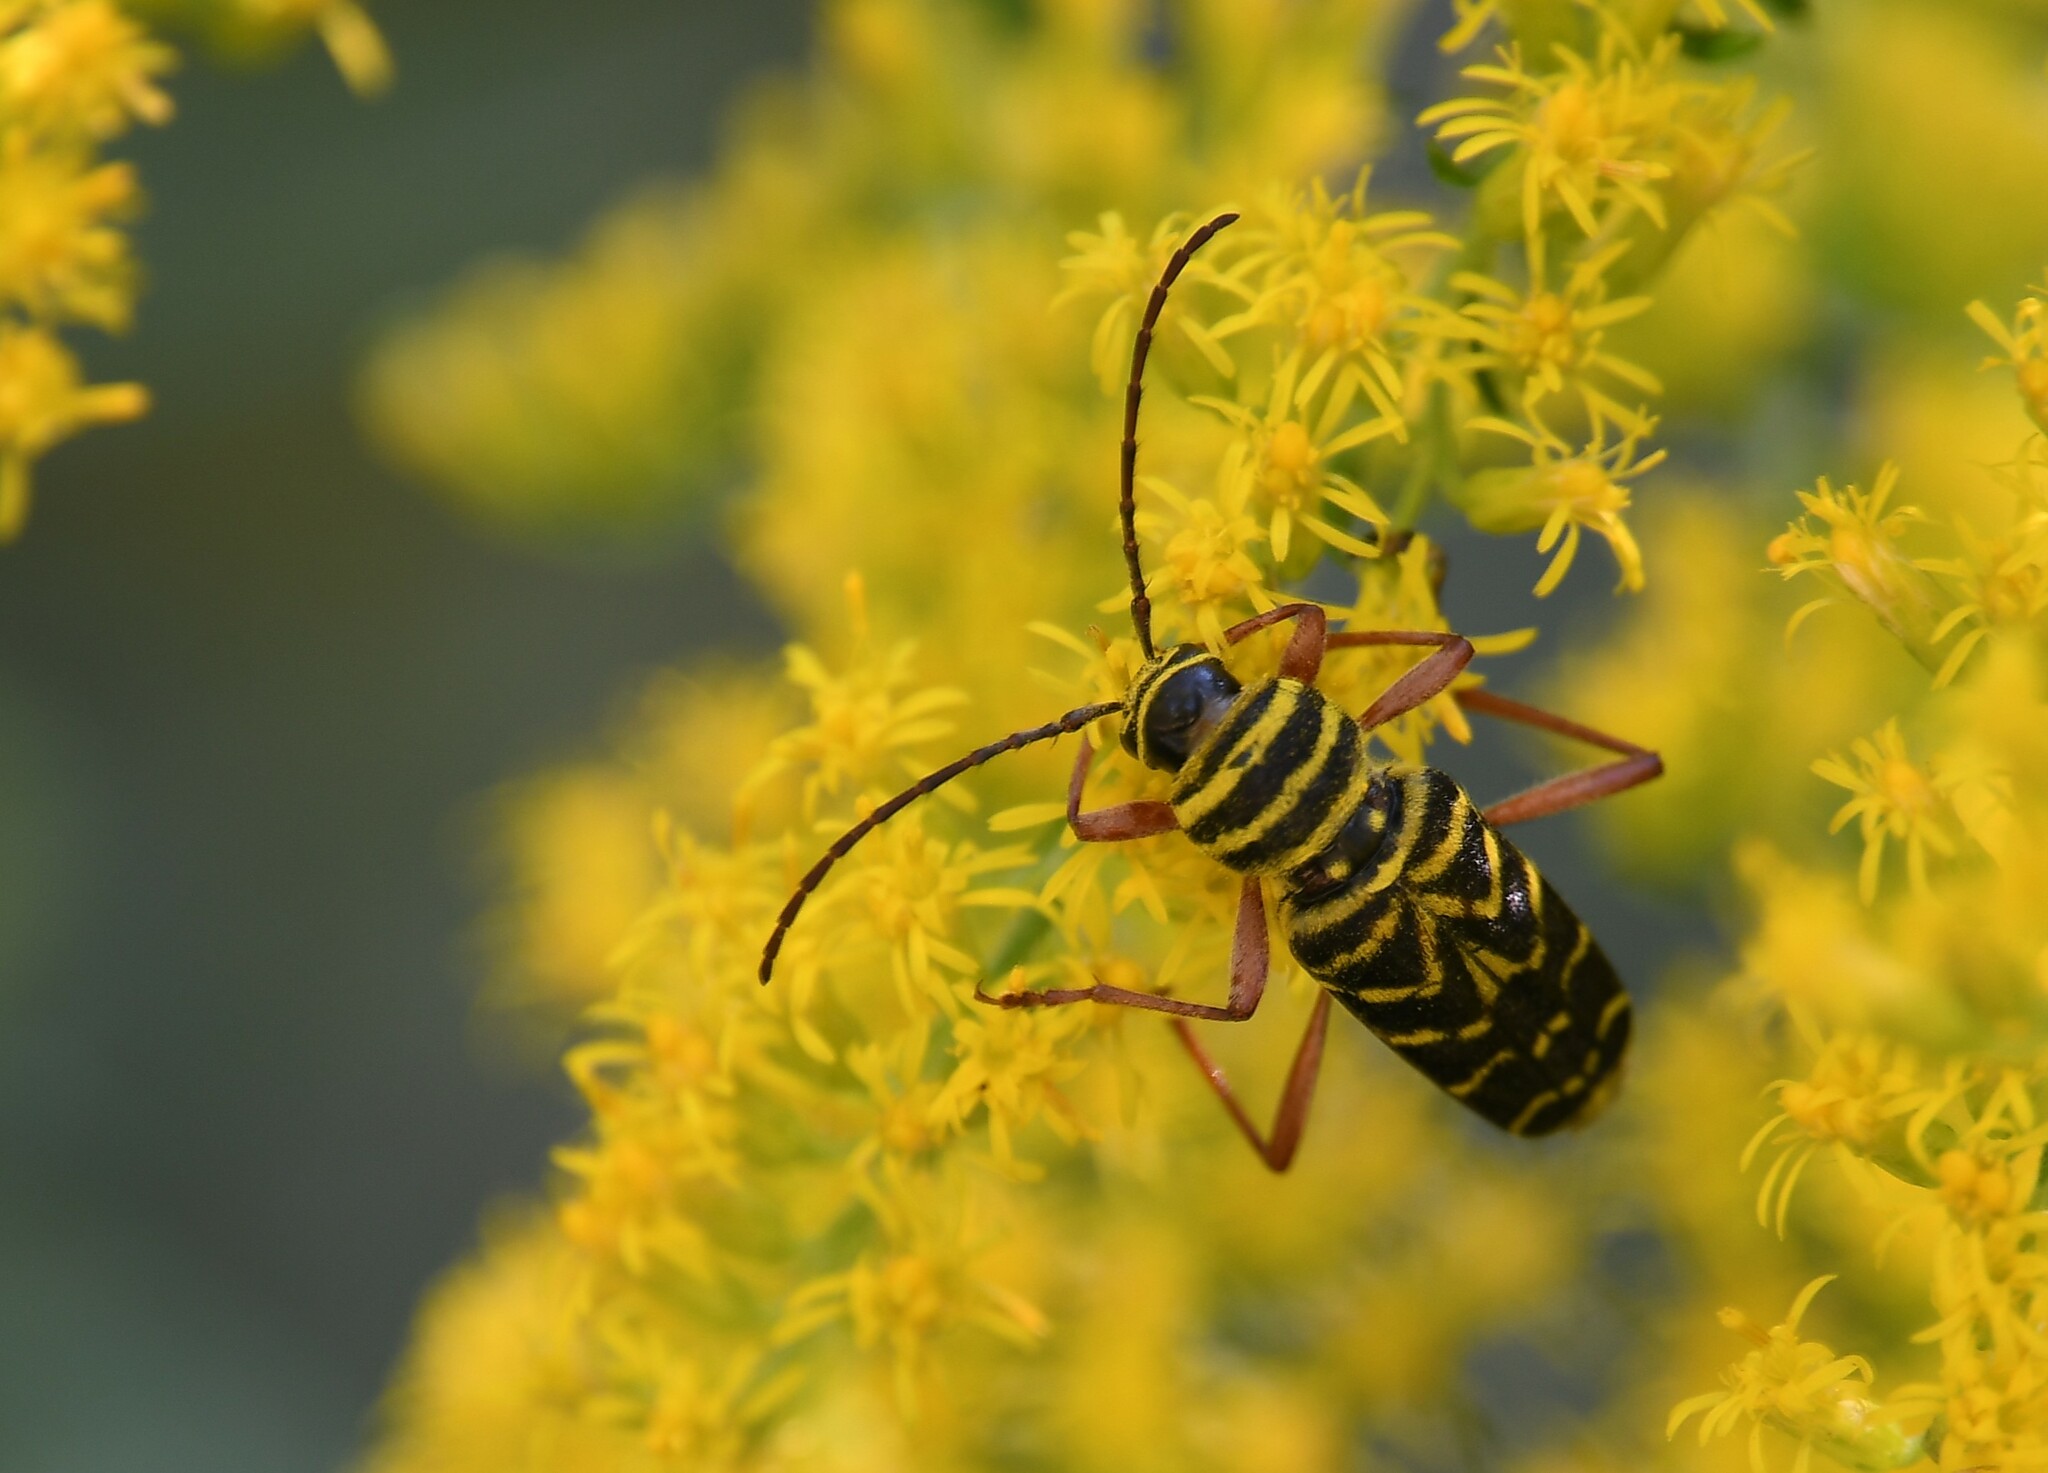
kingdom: Animalia
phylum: Arthropoda
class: Insecta
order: Coleoptera
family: Cerambycidae
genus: Megacyllene
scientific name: Megacyllene robiniae
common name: Locust borer
